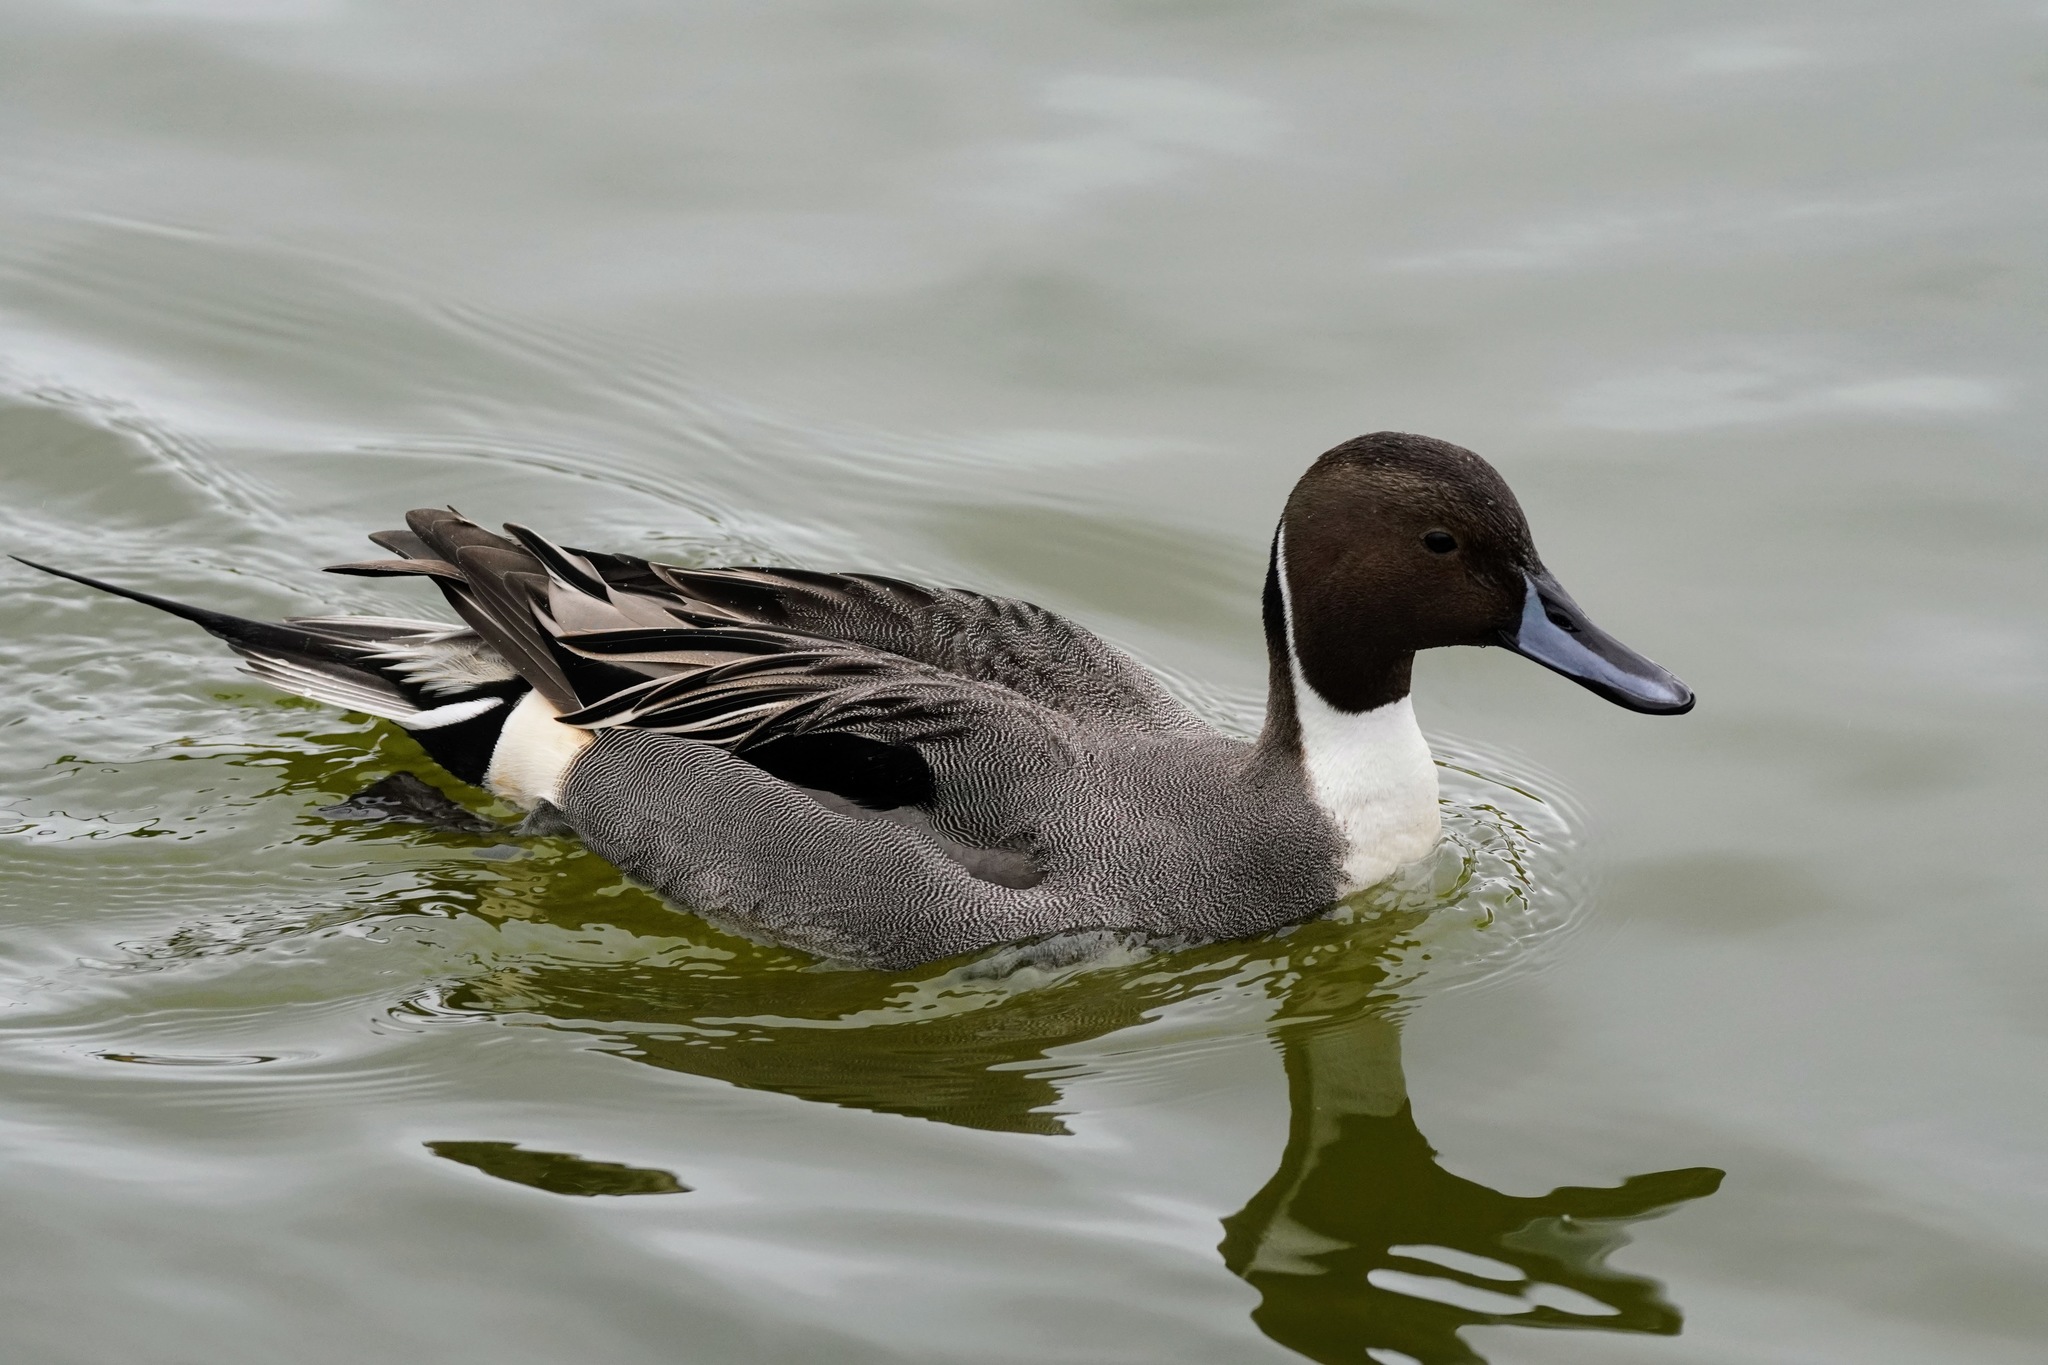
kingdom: Animalia
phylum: Chordata
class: Aves
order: Anseriformes
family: Anatidae
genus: Anas
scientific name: Anas acuta
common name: Northern pintail
